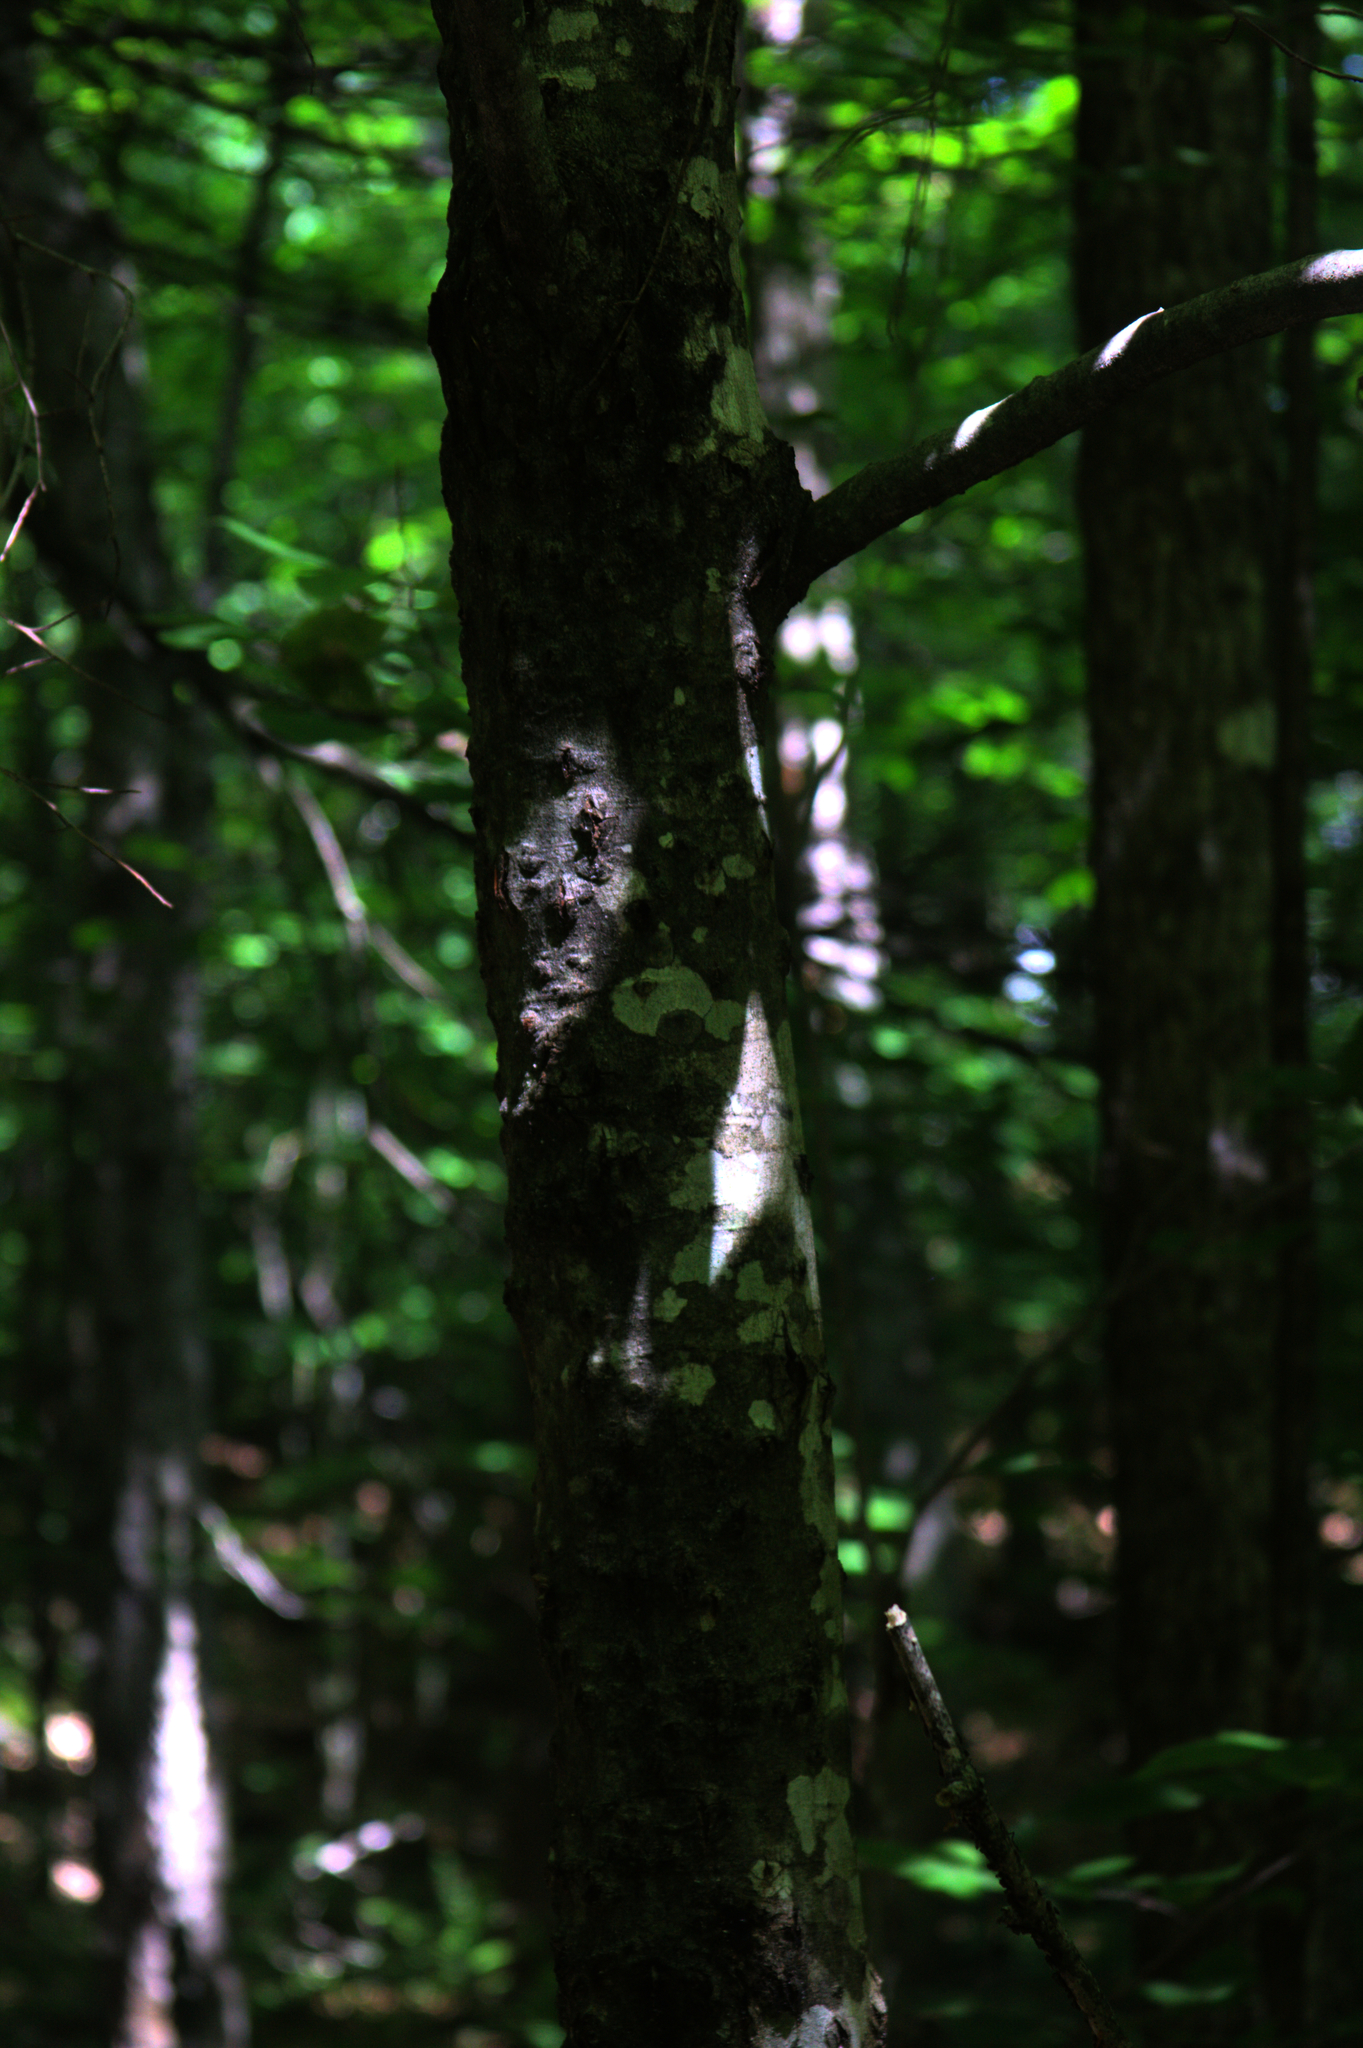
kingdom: Plantae
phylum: Tracheophyta
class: Magnoliopsida
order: Fagales
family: Fagaceae
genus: Fagus
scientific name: Fagus grandifolia
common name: American beech
